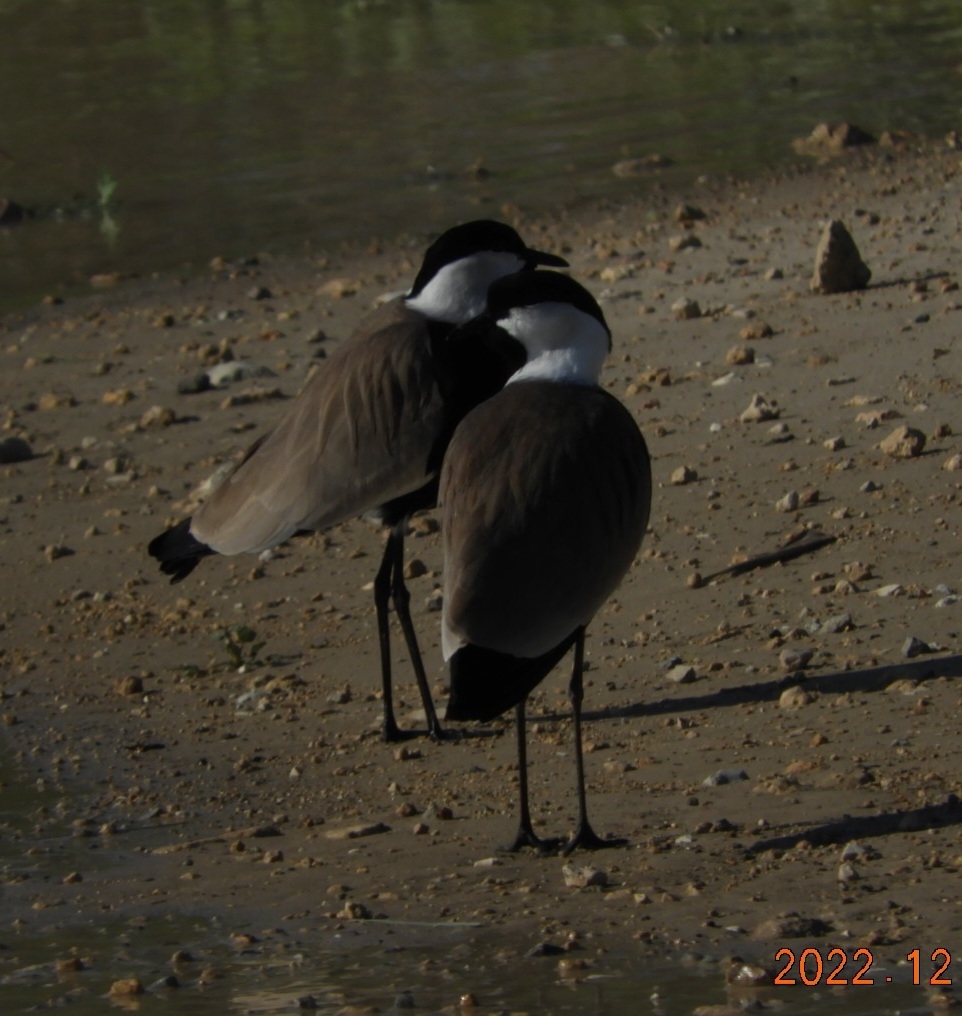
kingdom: Animalia
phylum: Chordata
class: Aves
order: Charadriiformes
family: Charadriidae
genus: Vanellus
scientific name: Vanellus spinosus
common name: Spur-winged lapwing
